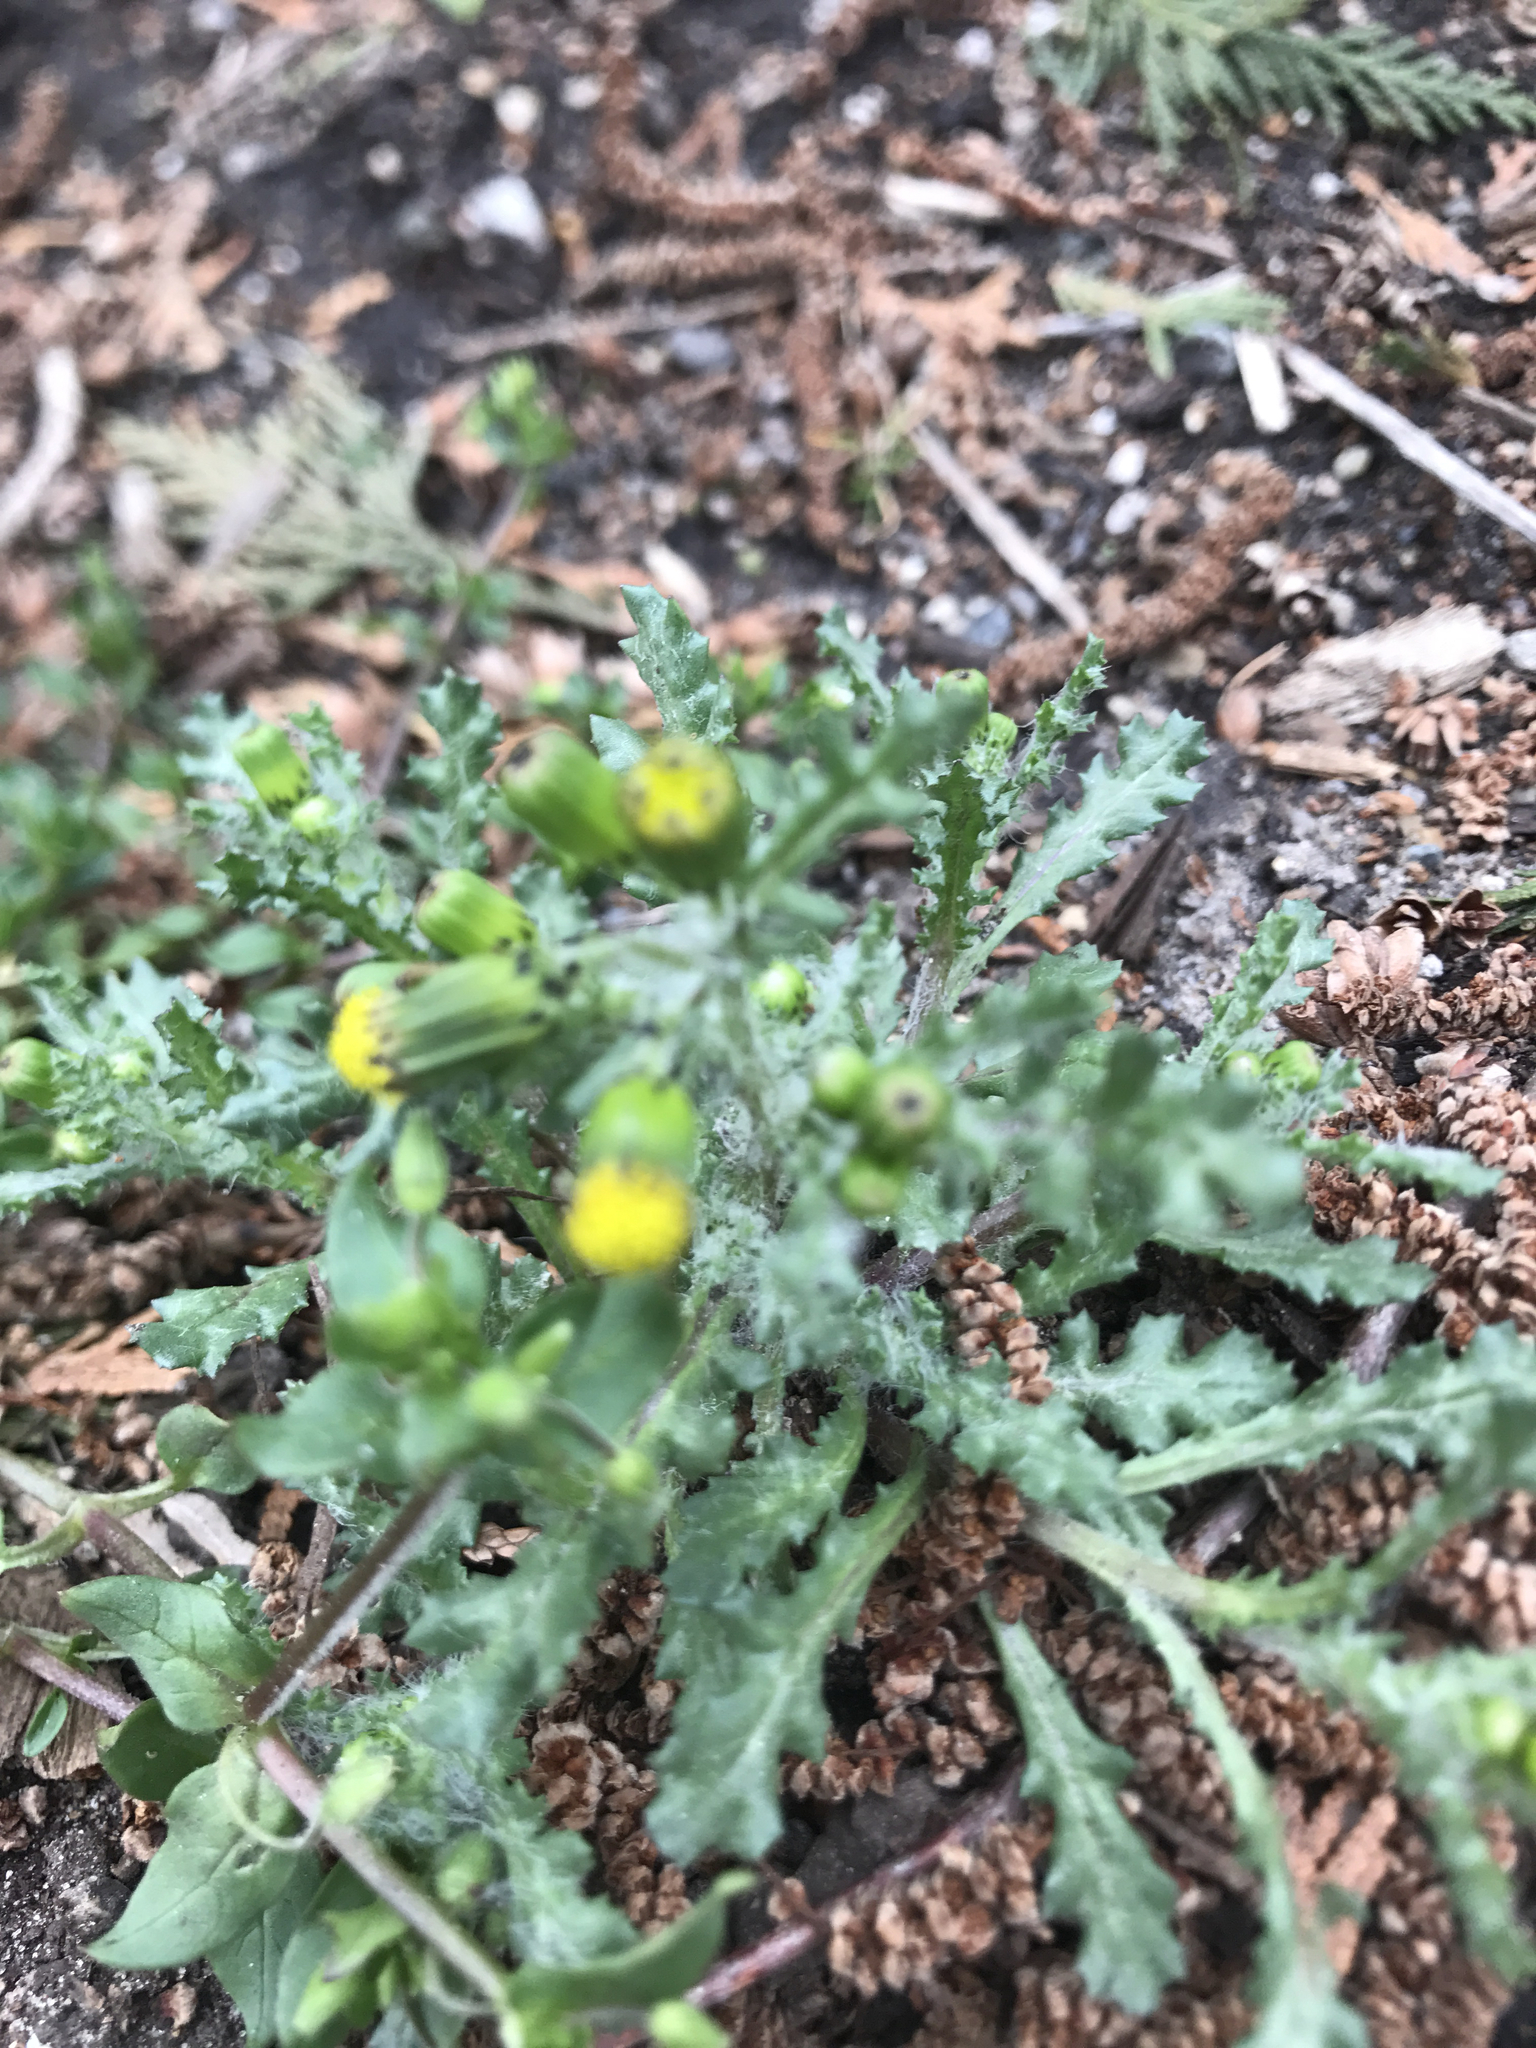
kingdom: Plantae
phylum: Tracheophyta
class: Magnoliopsida
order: Asterales
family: Asteraceae
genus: Senecio
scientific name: Senecio vulgaris
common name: Old-man-in-the-spring
